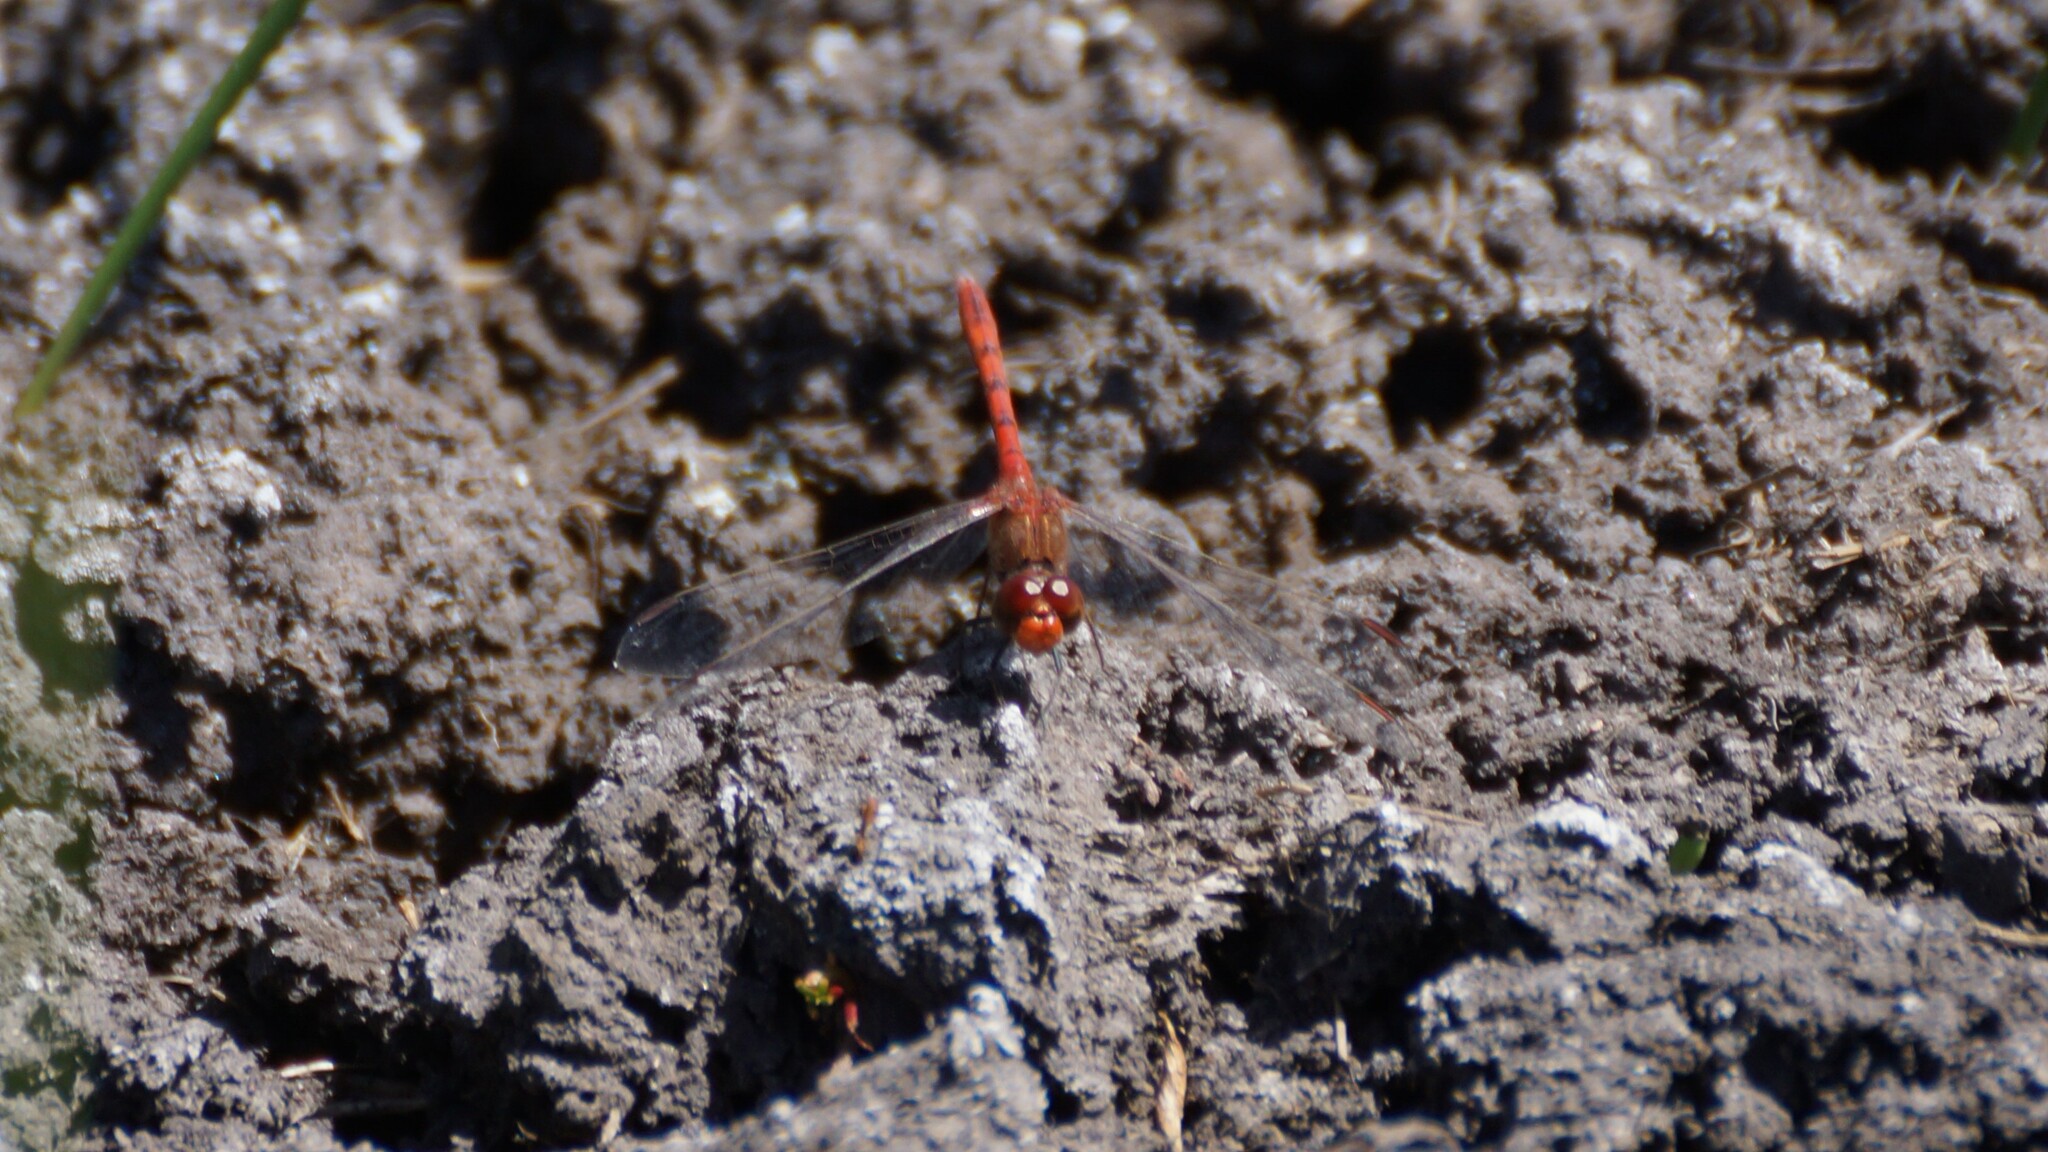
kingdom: Animalia
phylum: Arthropoda
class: Insecta
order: Odonata
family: Libellulidae
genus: Diplacodes
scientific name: Diplacodes bipunctata
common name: Red percher dragonfly
